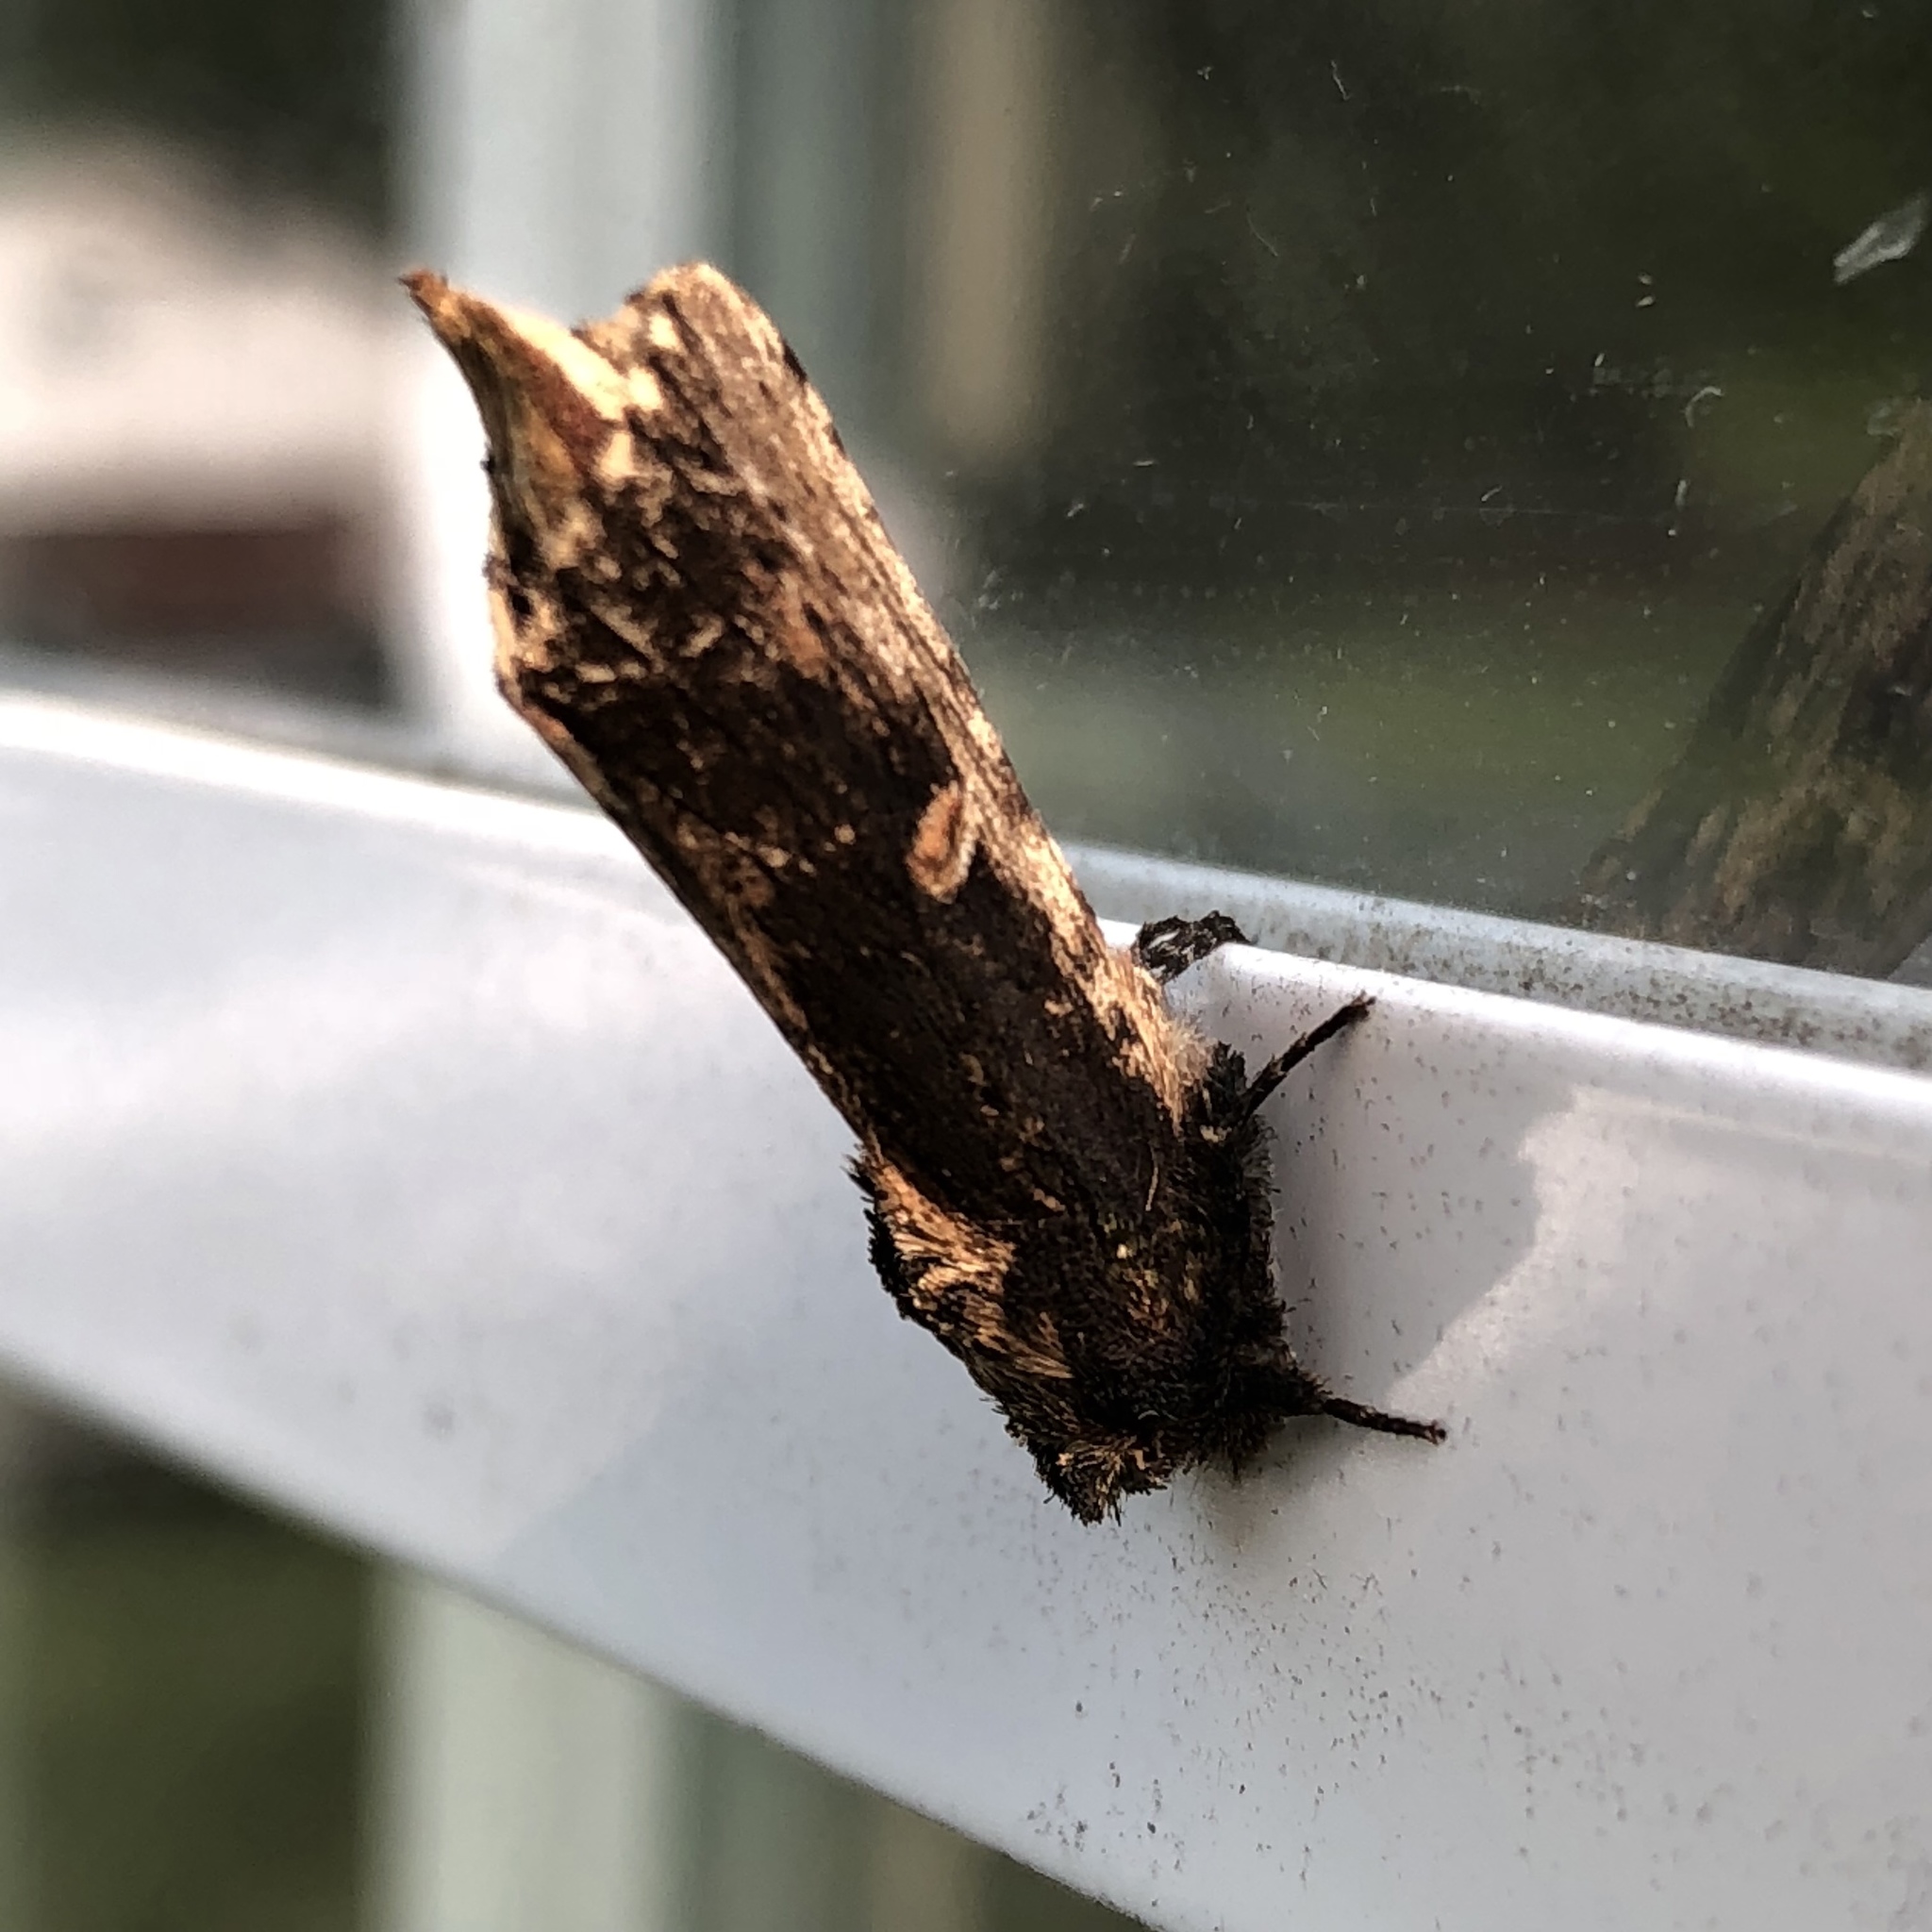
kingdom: Animalia
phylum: Arthropoda
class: Insecta
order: Lepidoptera
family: Notodontidae
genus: Schizura
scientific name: Schizura ipomaeae
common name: Morning-glory prominent
